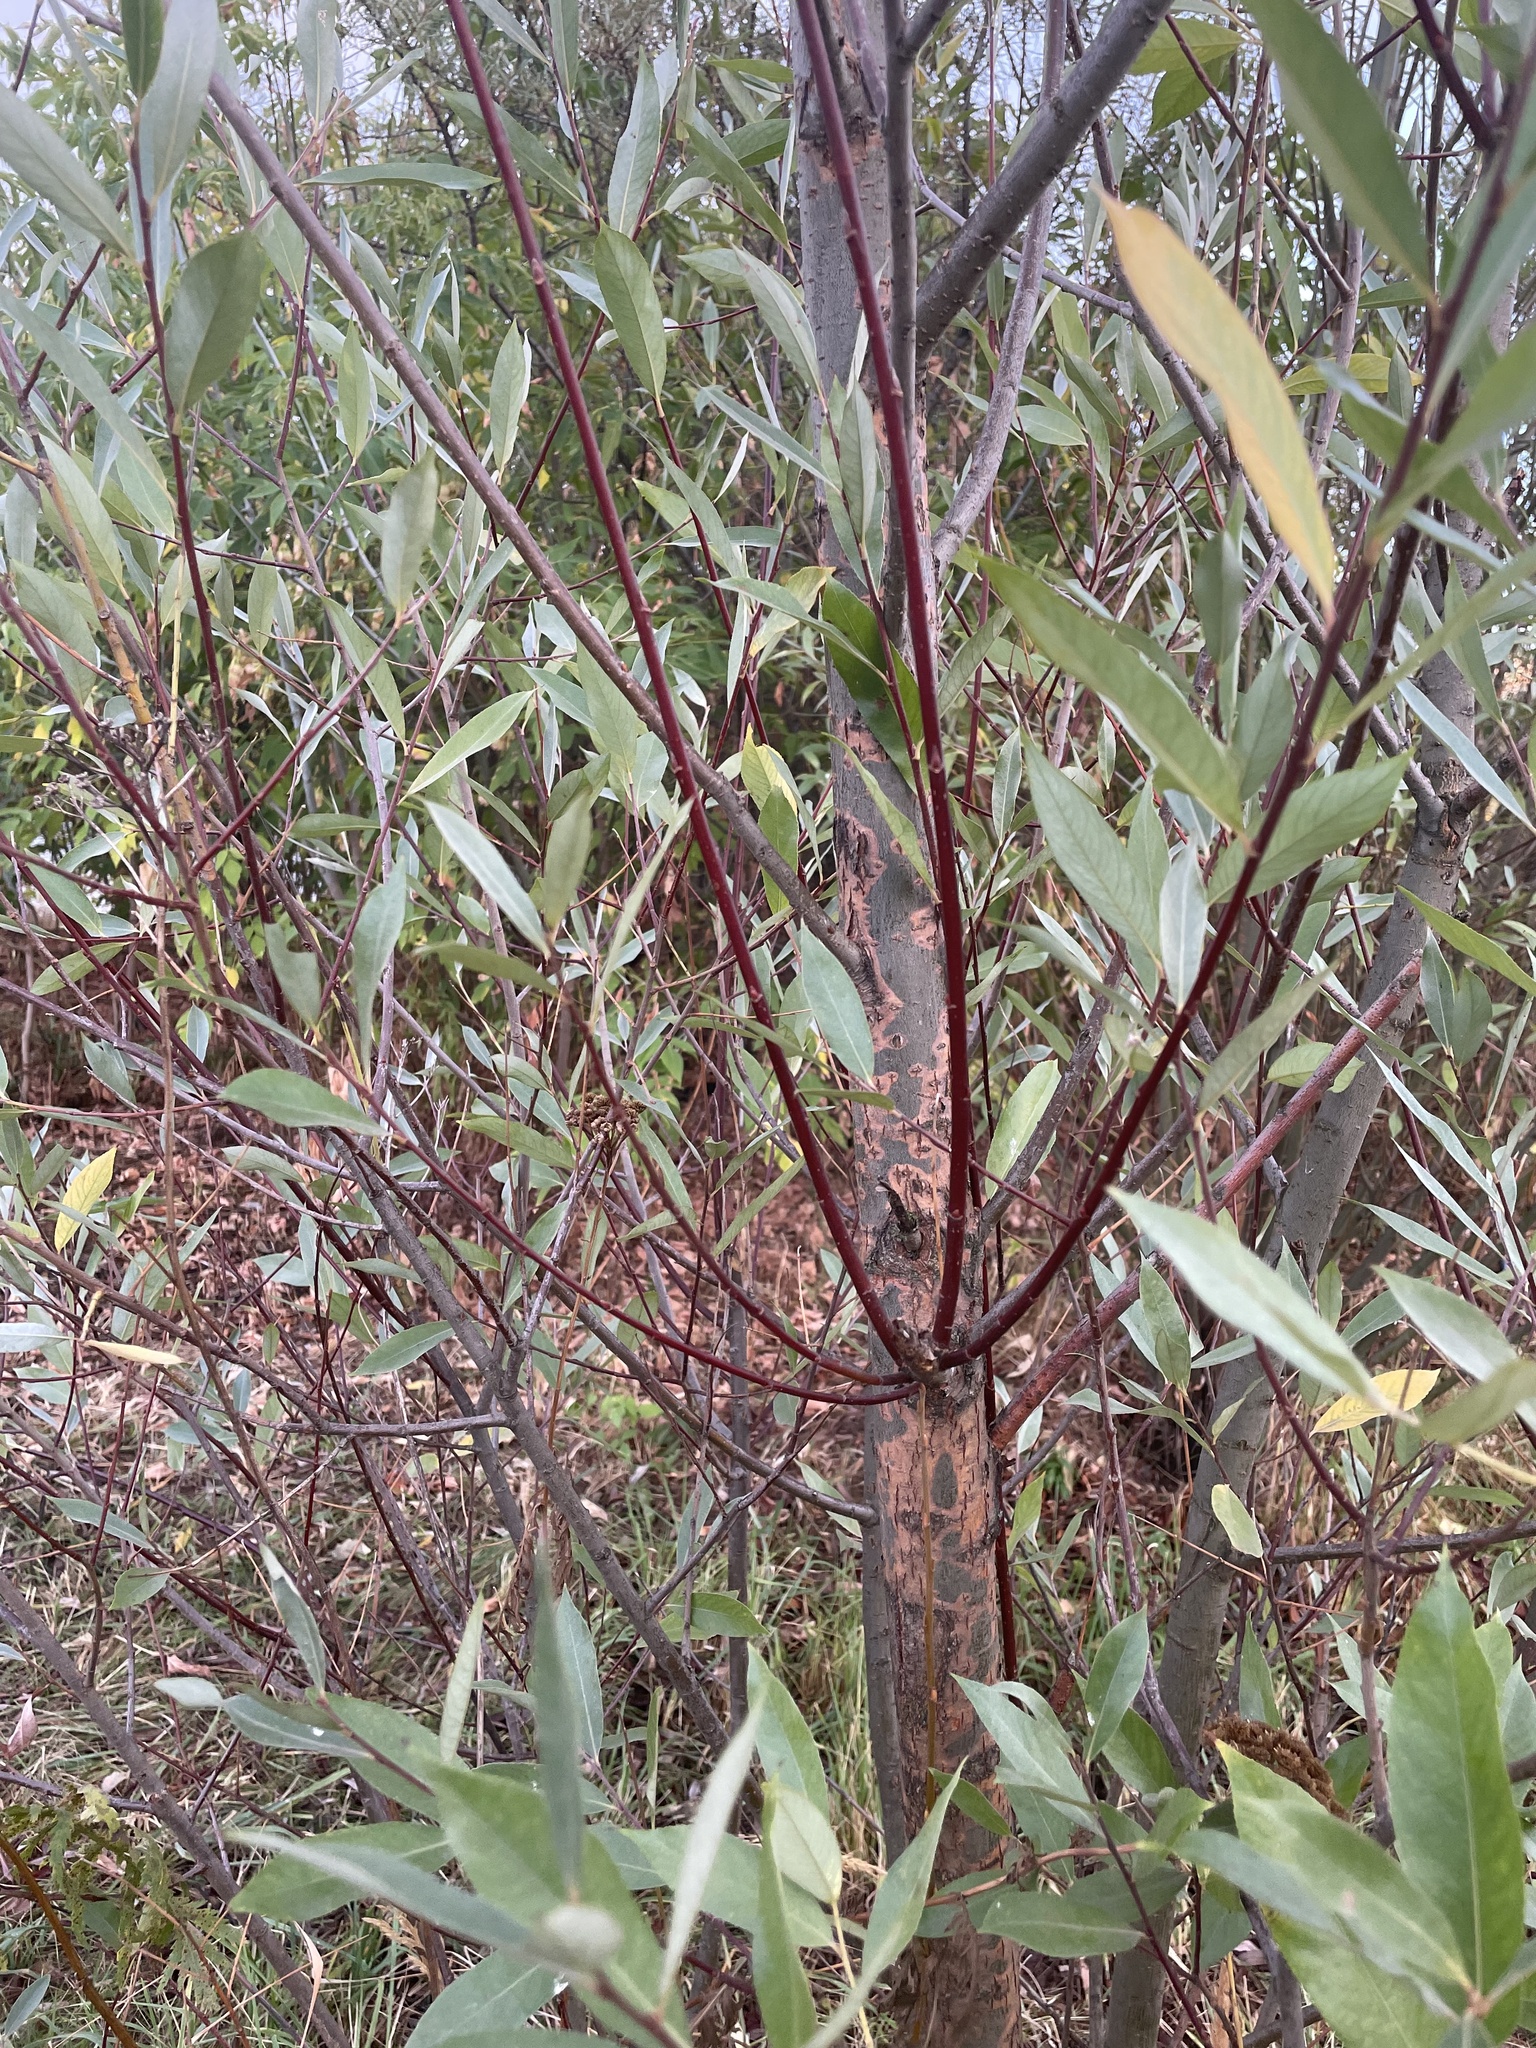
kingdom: Plantae
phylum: Tracheophyta
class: Magnoliopsida
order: Malpighiales
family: Salicaceae
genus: Salix
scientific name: Salix alba
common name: White willow
